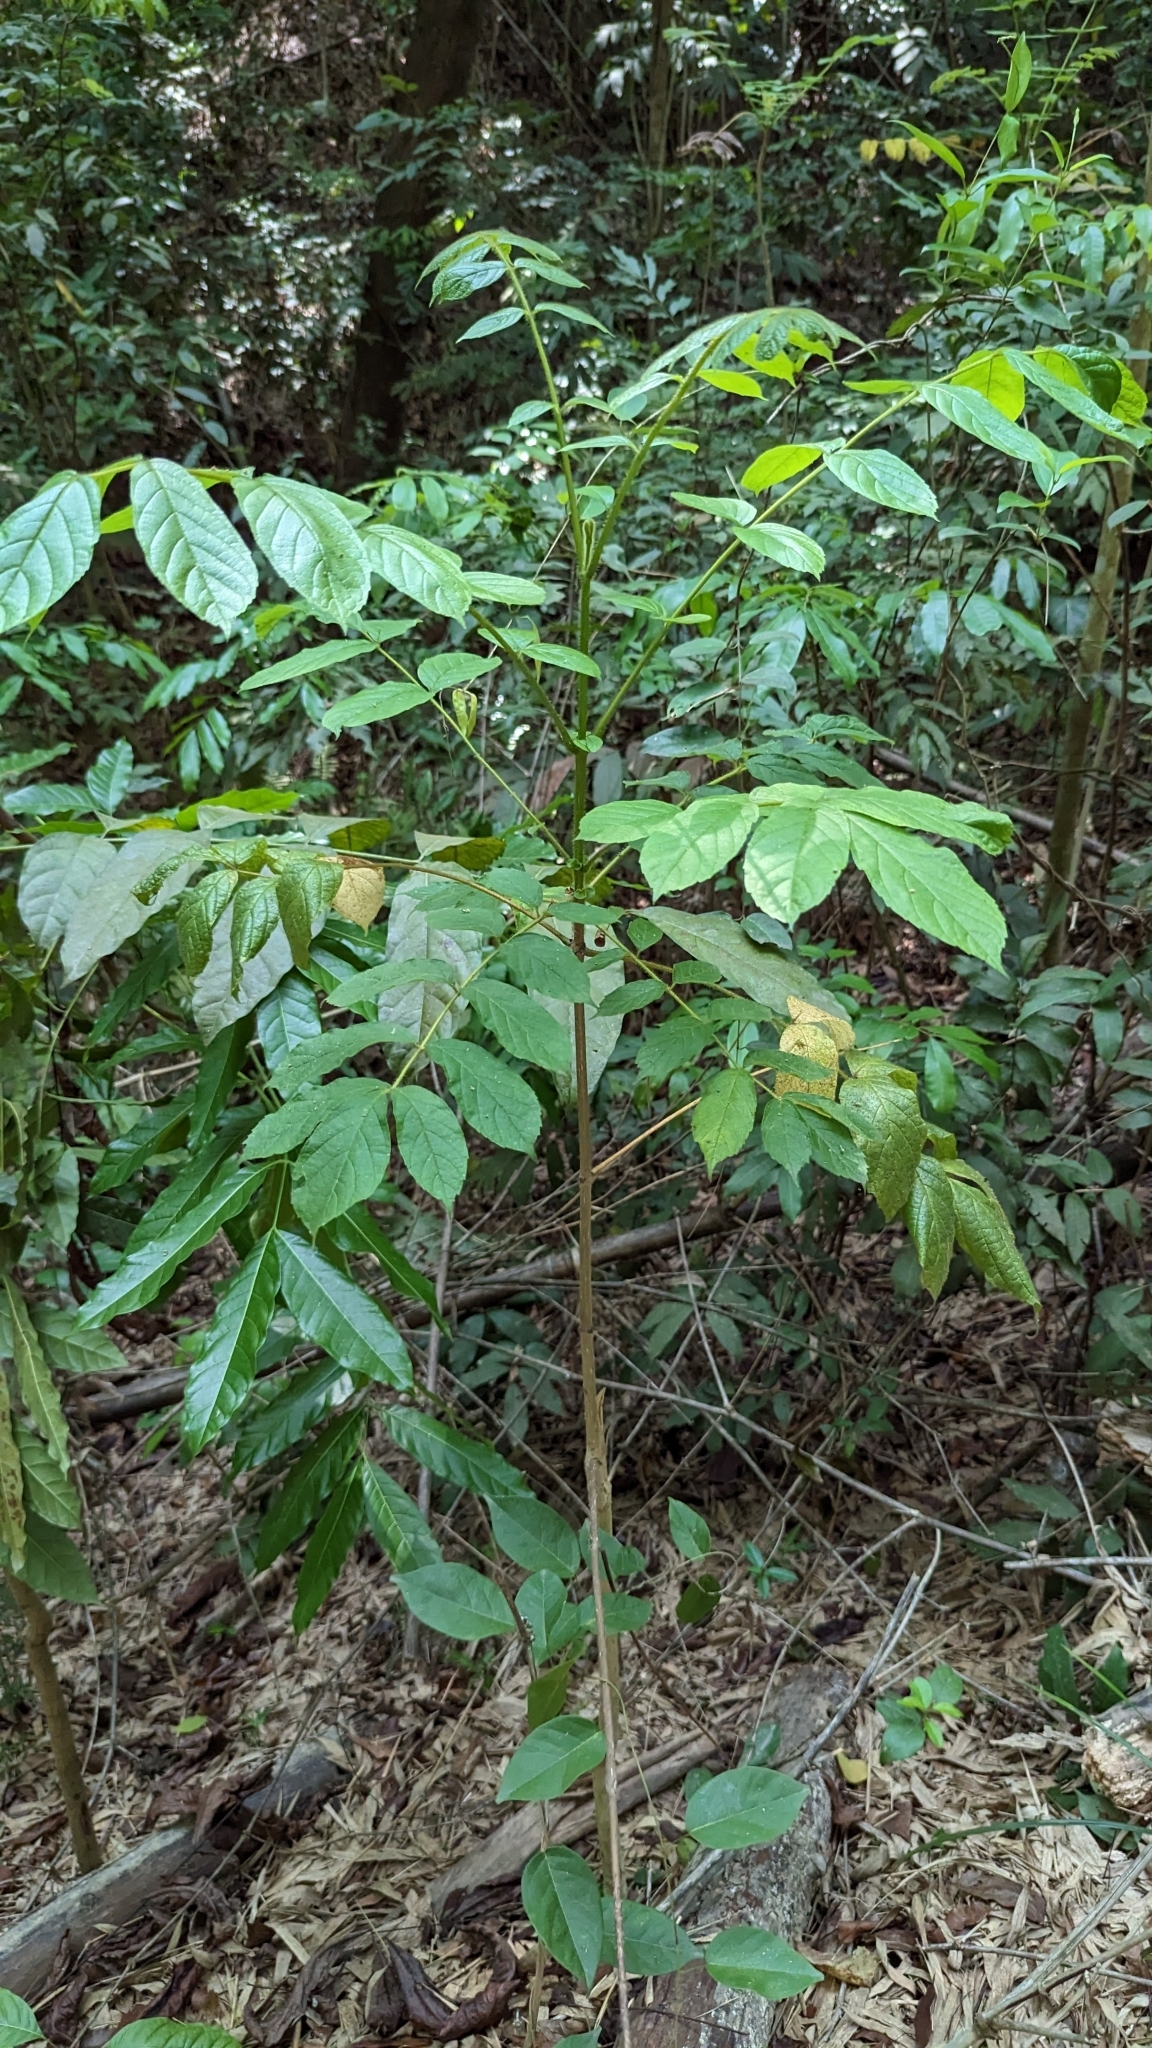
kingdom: Plantae
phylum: Tracheophyta
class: Magnoliopsida
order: Lamiales
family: Bignoniaceae
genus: Spathodea
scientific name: Spathodea campanulata
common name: African tuliptree
